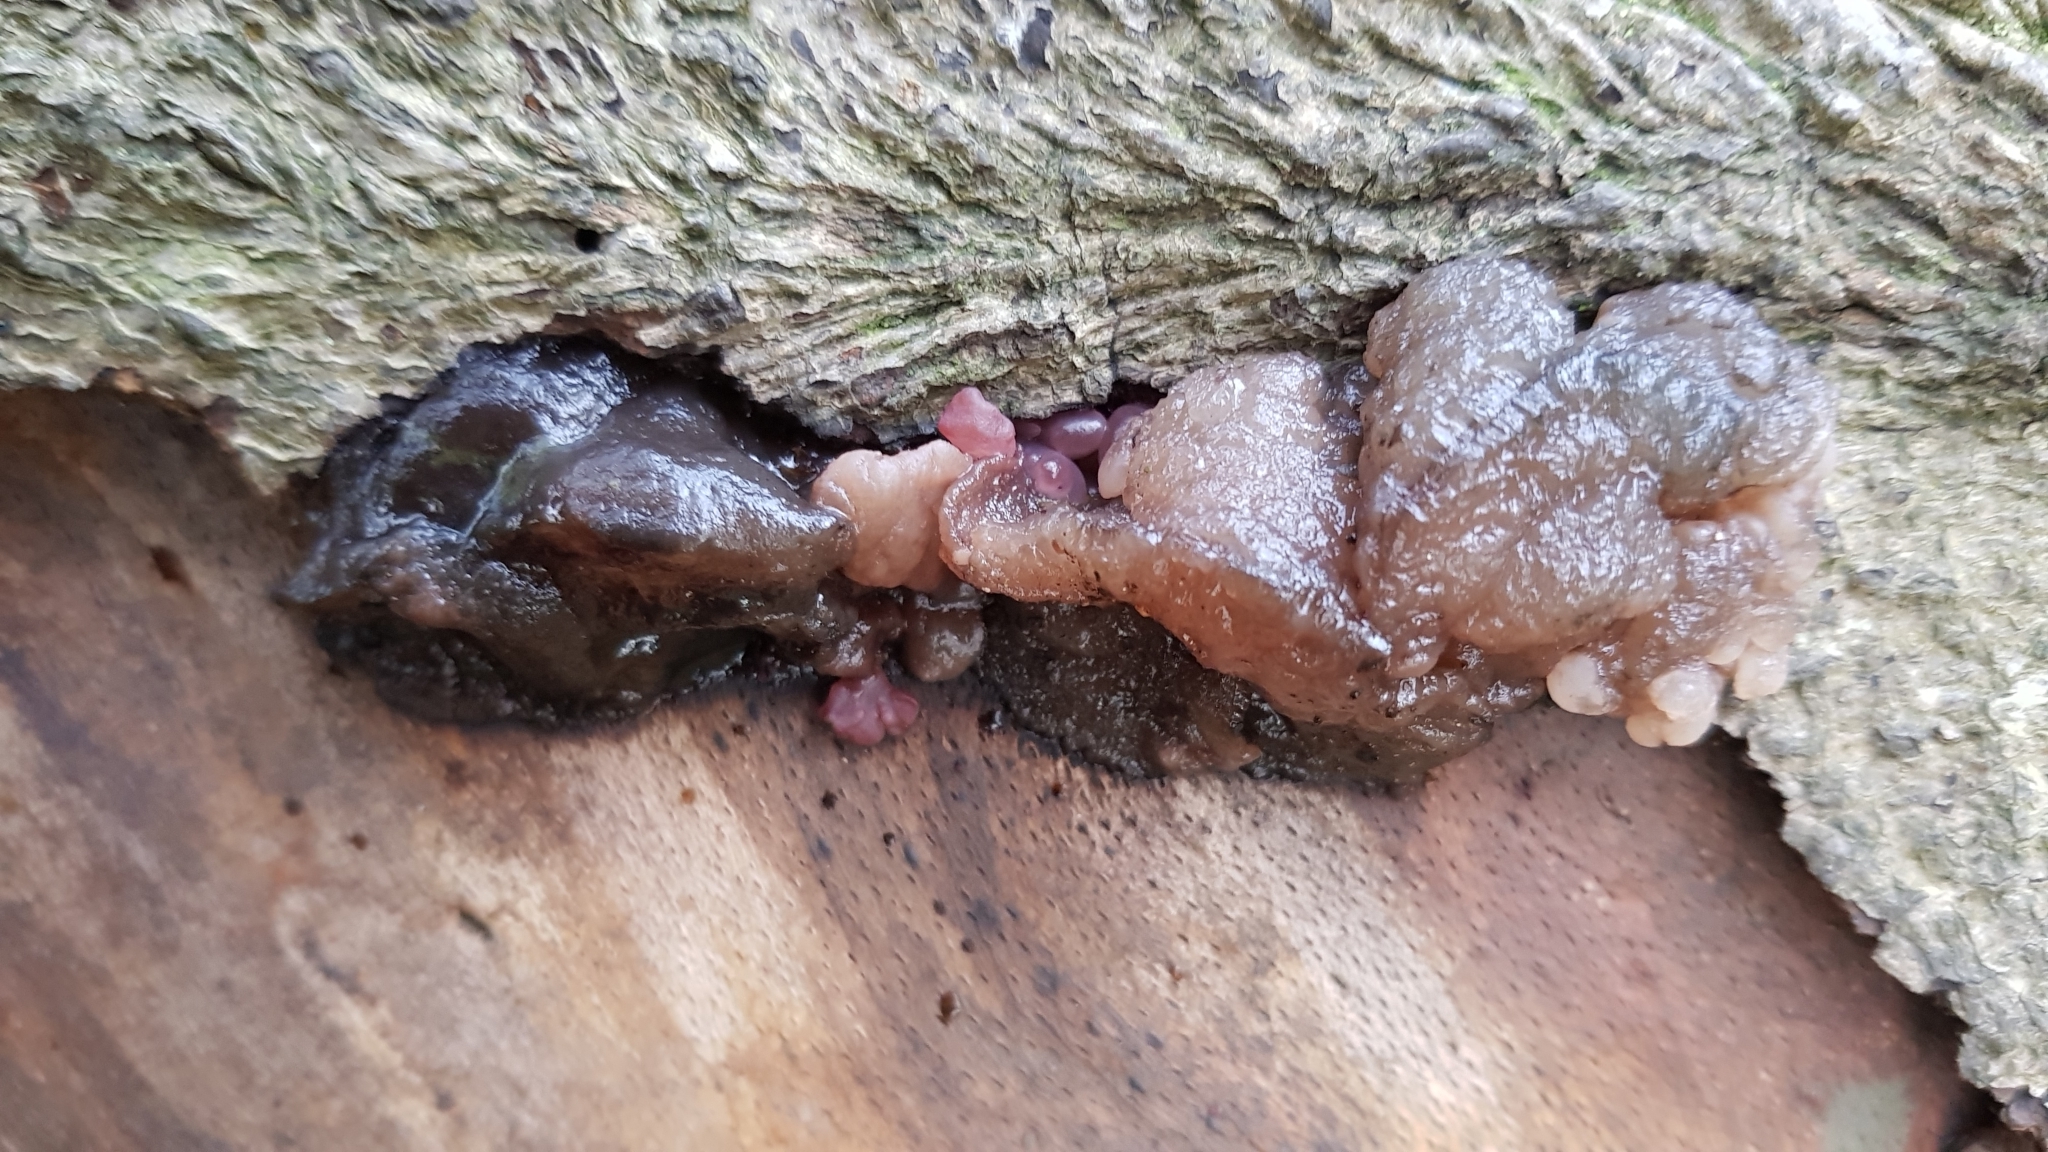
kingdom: Fungi
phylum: Ascomycota
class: Leotiomycetes
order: Helotiales
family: Gelatinodiscaceae
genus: Neobulgaria
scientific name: Neobulgaria pura
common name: Beech jelly-disc
